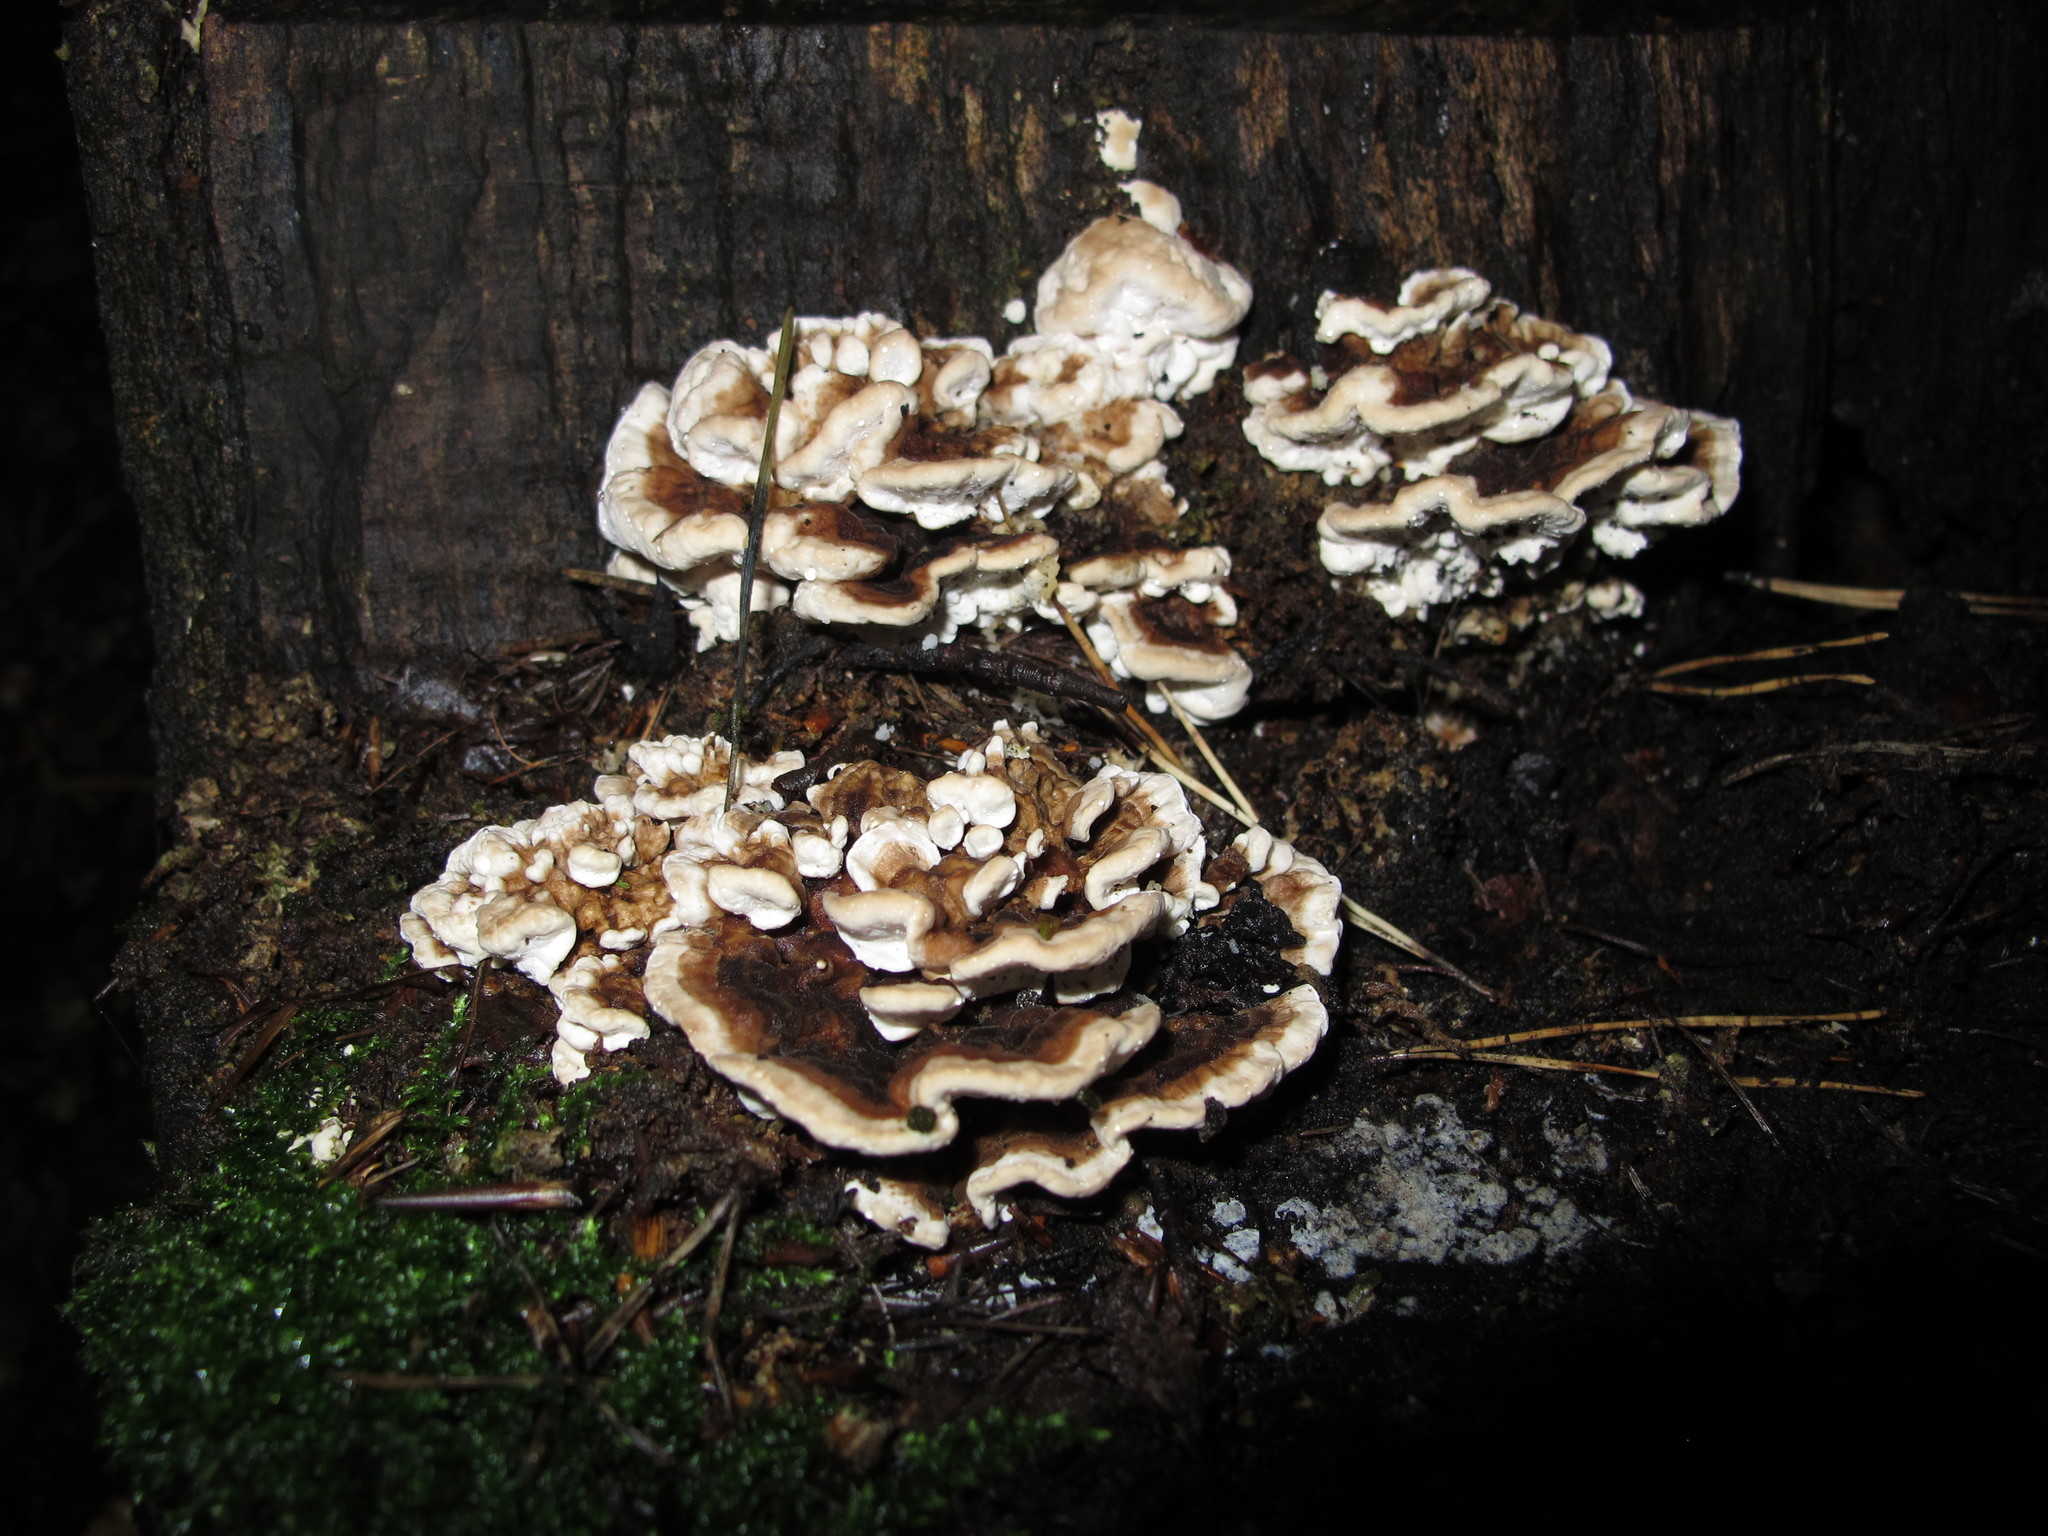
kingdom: Fungi
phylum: Basidiomycota
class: Agaricomycetes
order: Polyporales
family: Polyporaceae
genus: Trametes
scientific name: Trametes versicolor
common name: Turkeytail
